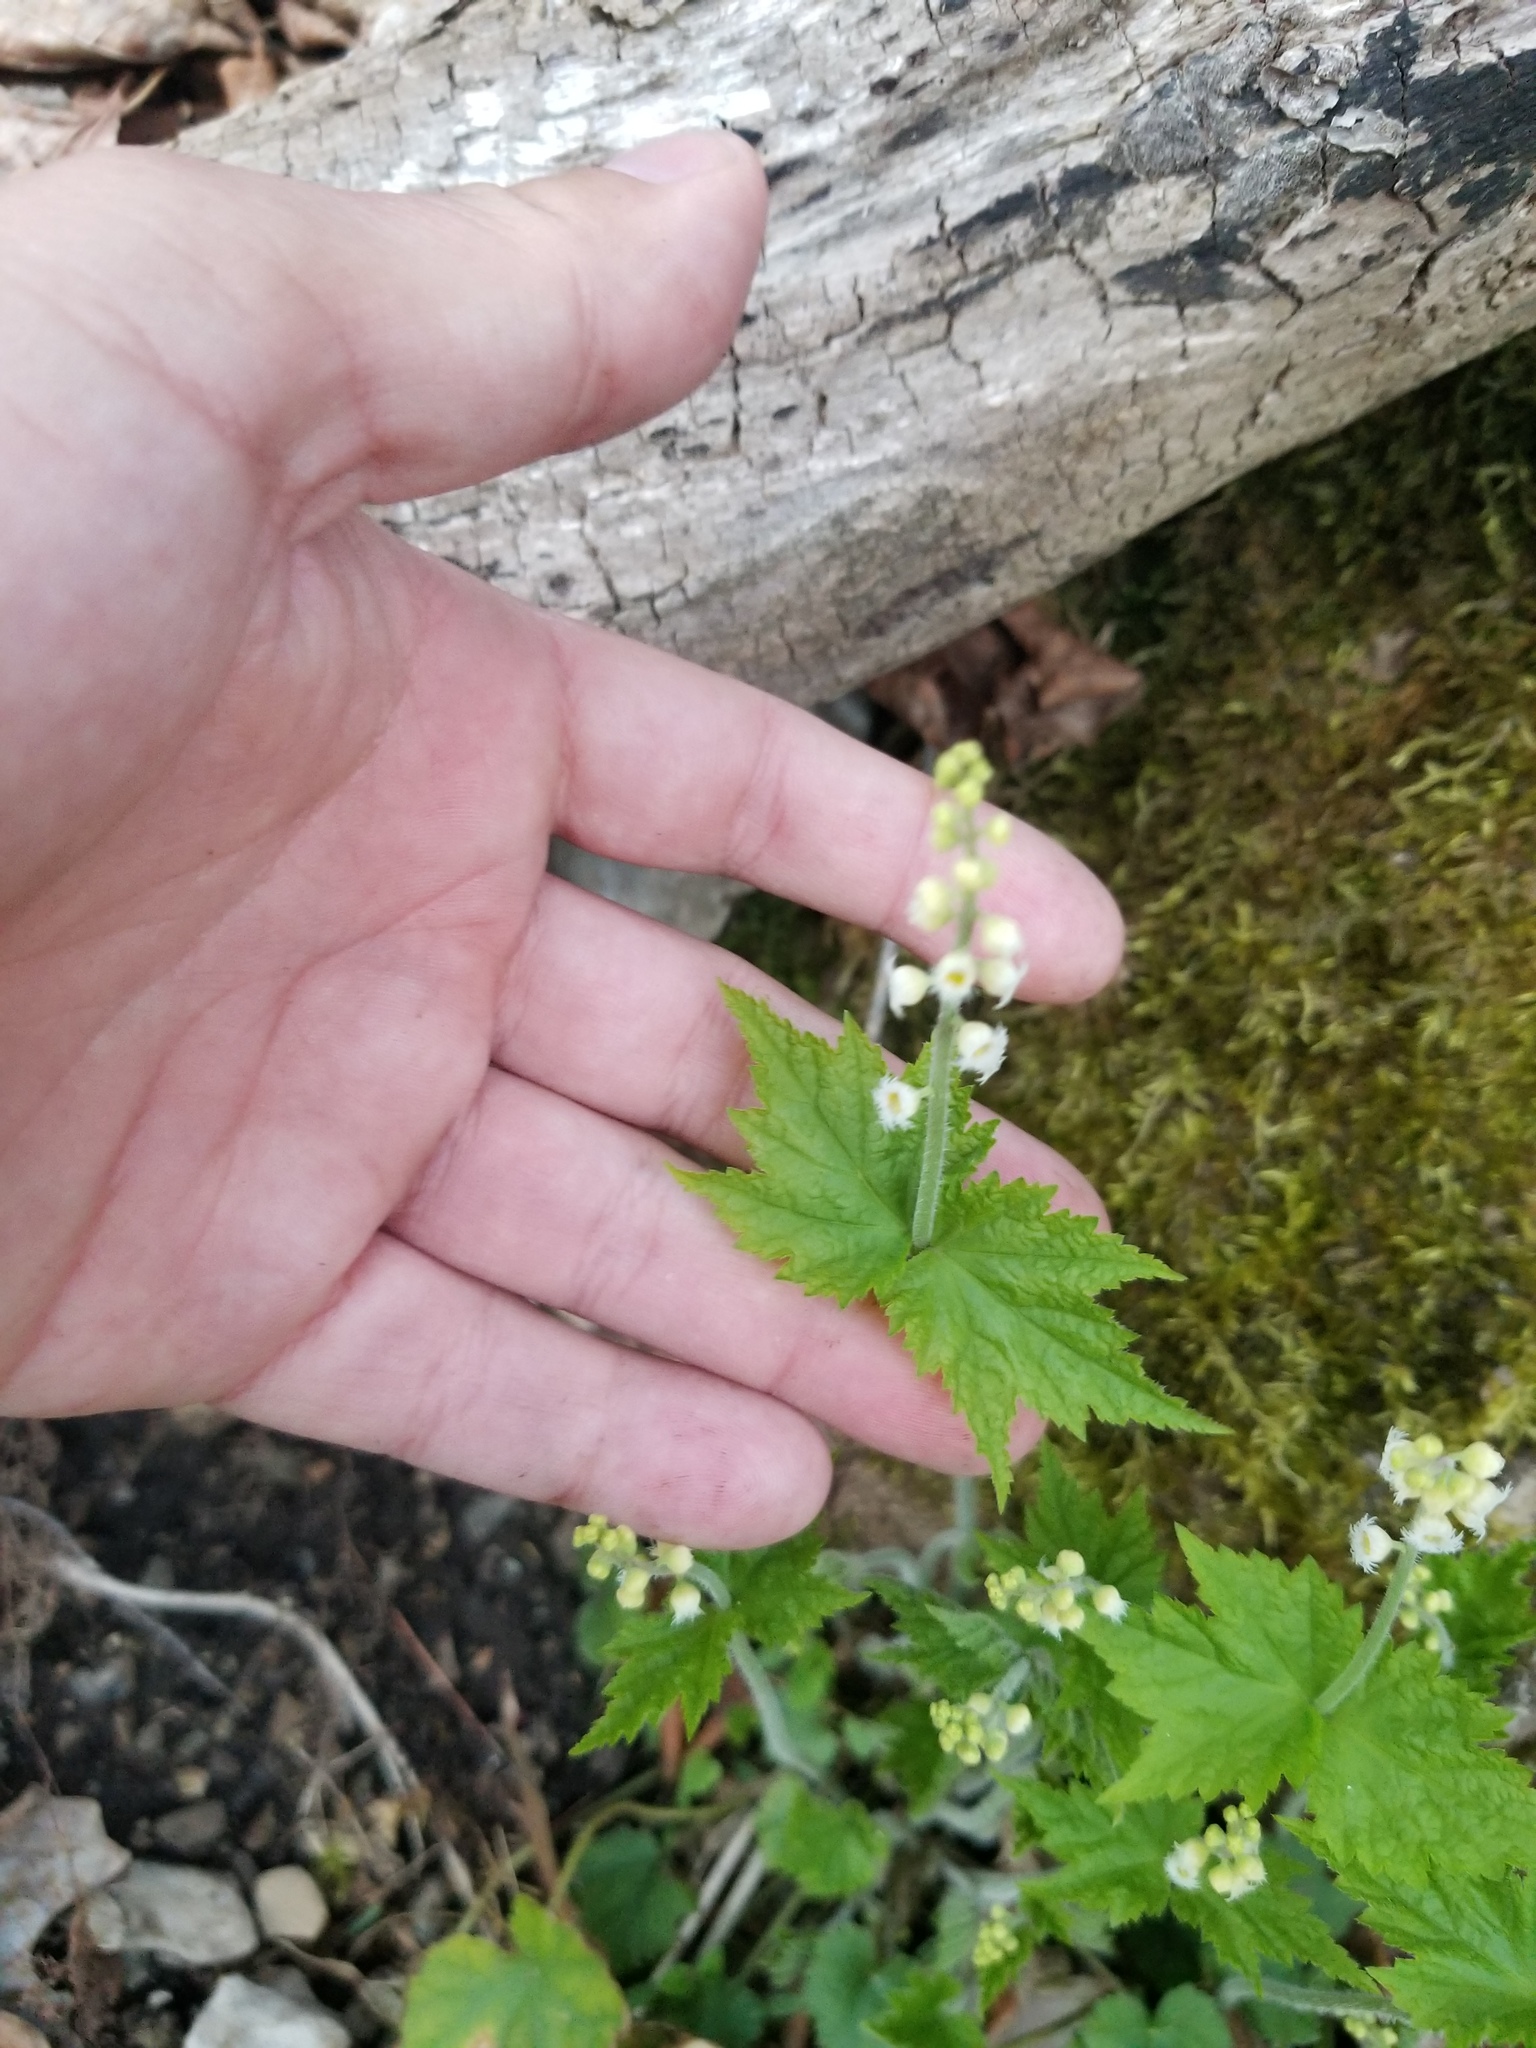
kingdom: Plantae
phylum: Tracheophyta
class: Magnoliopsida
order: Saxifragales
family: Saxifragaceae
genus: Mitella
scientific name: Mitella diphylla
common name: Coolwort
